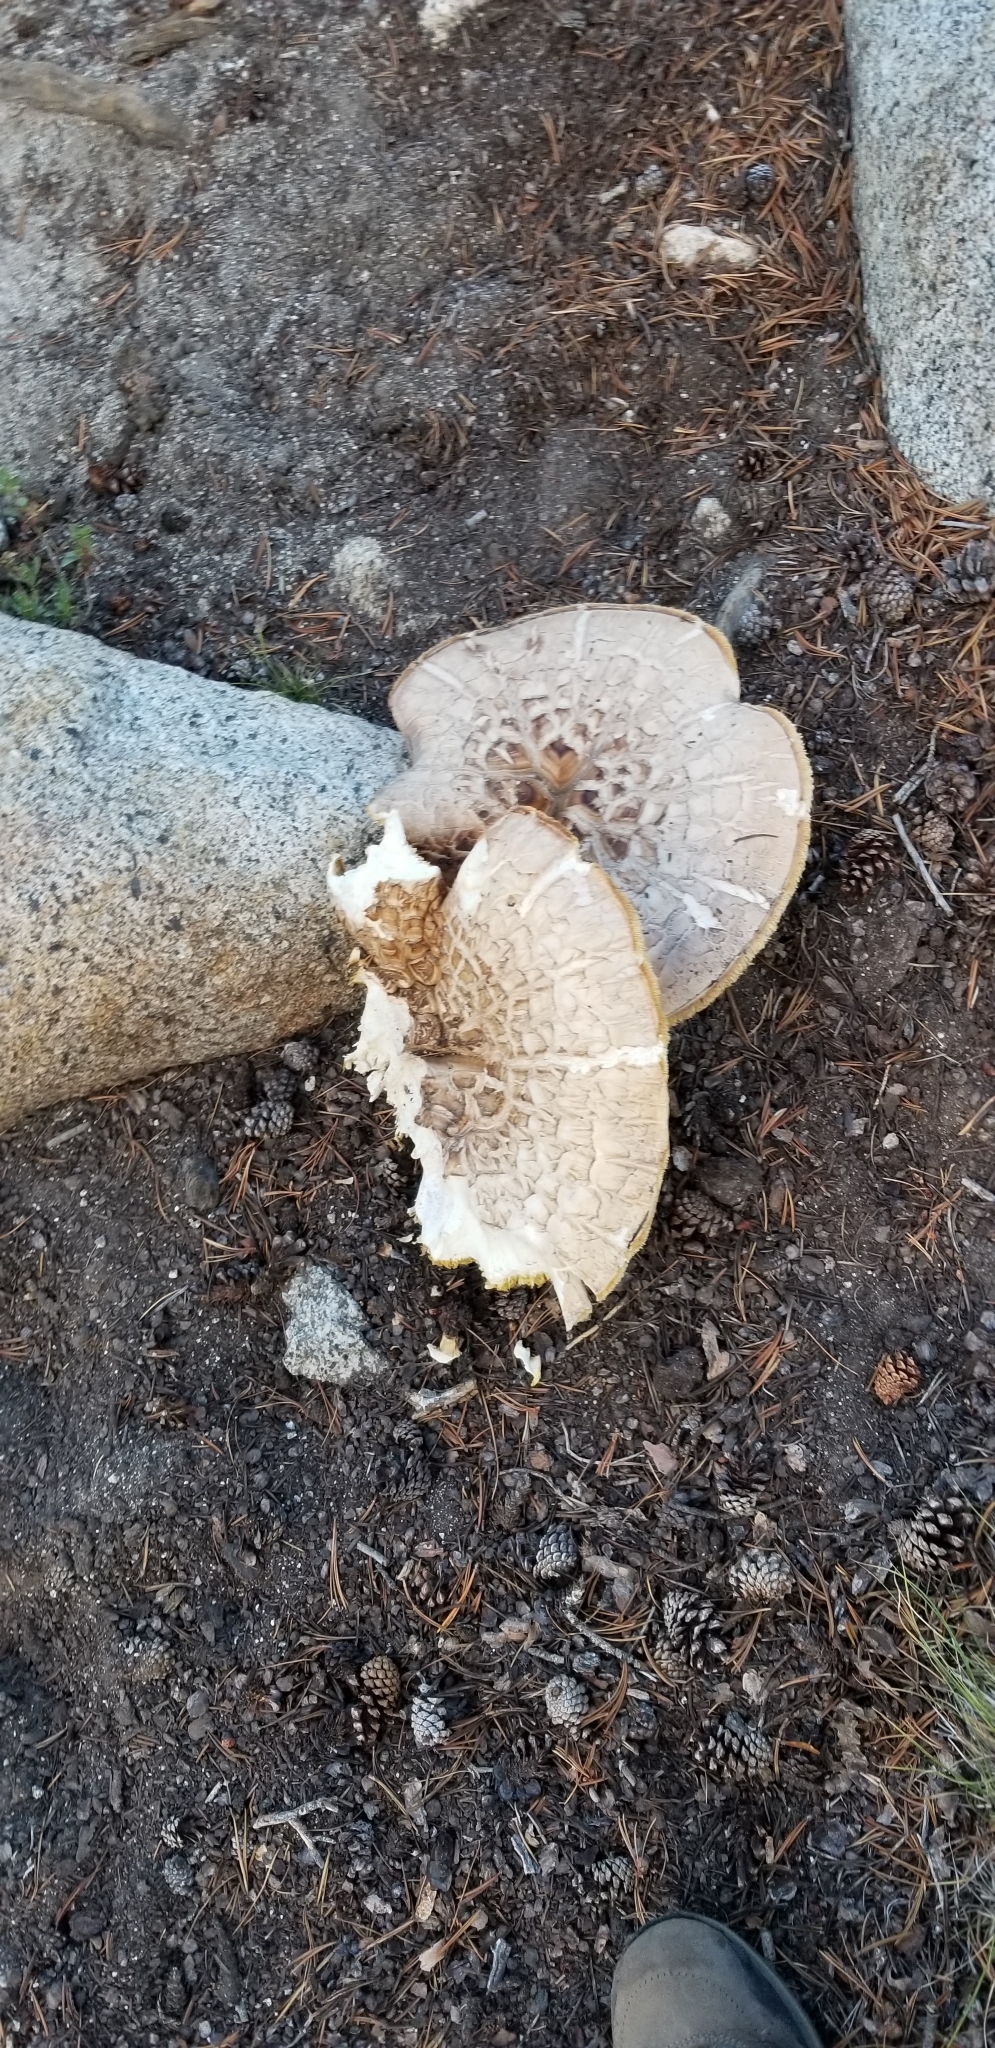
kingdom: Fungi
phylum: Basidiomycota
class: Agaricomycetes
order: Gloeophyllales
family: Gloeophyllaceae
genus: Neolentinus
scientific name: Neolentinus ponderosus
